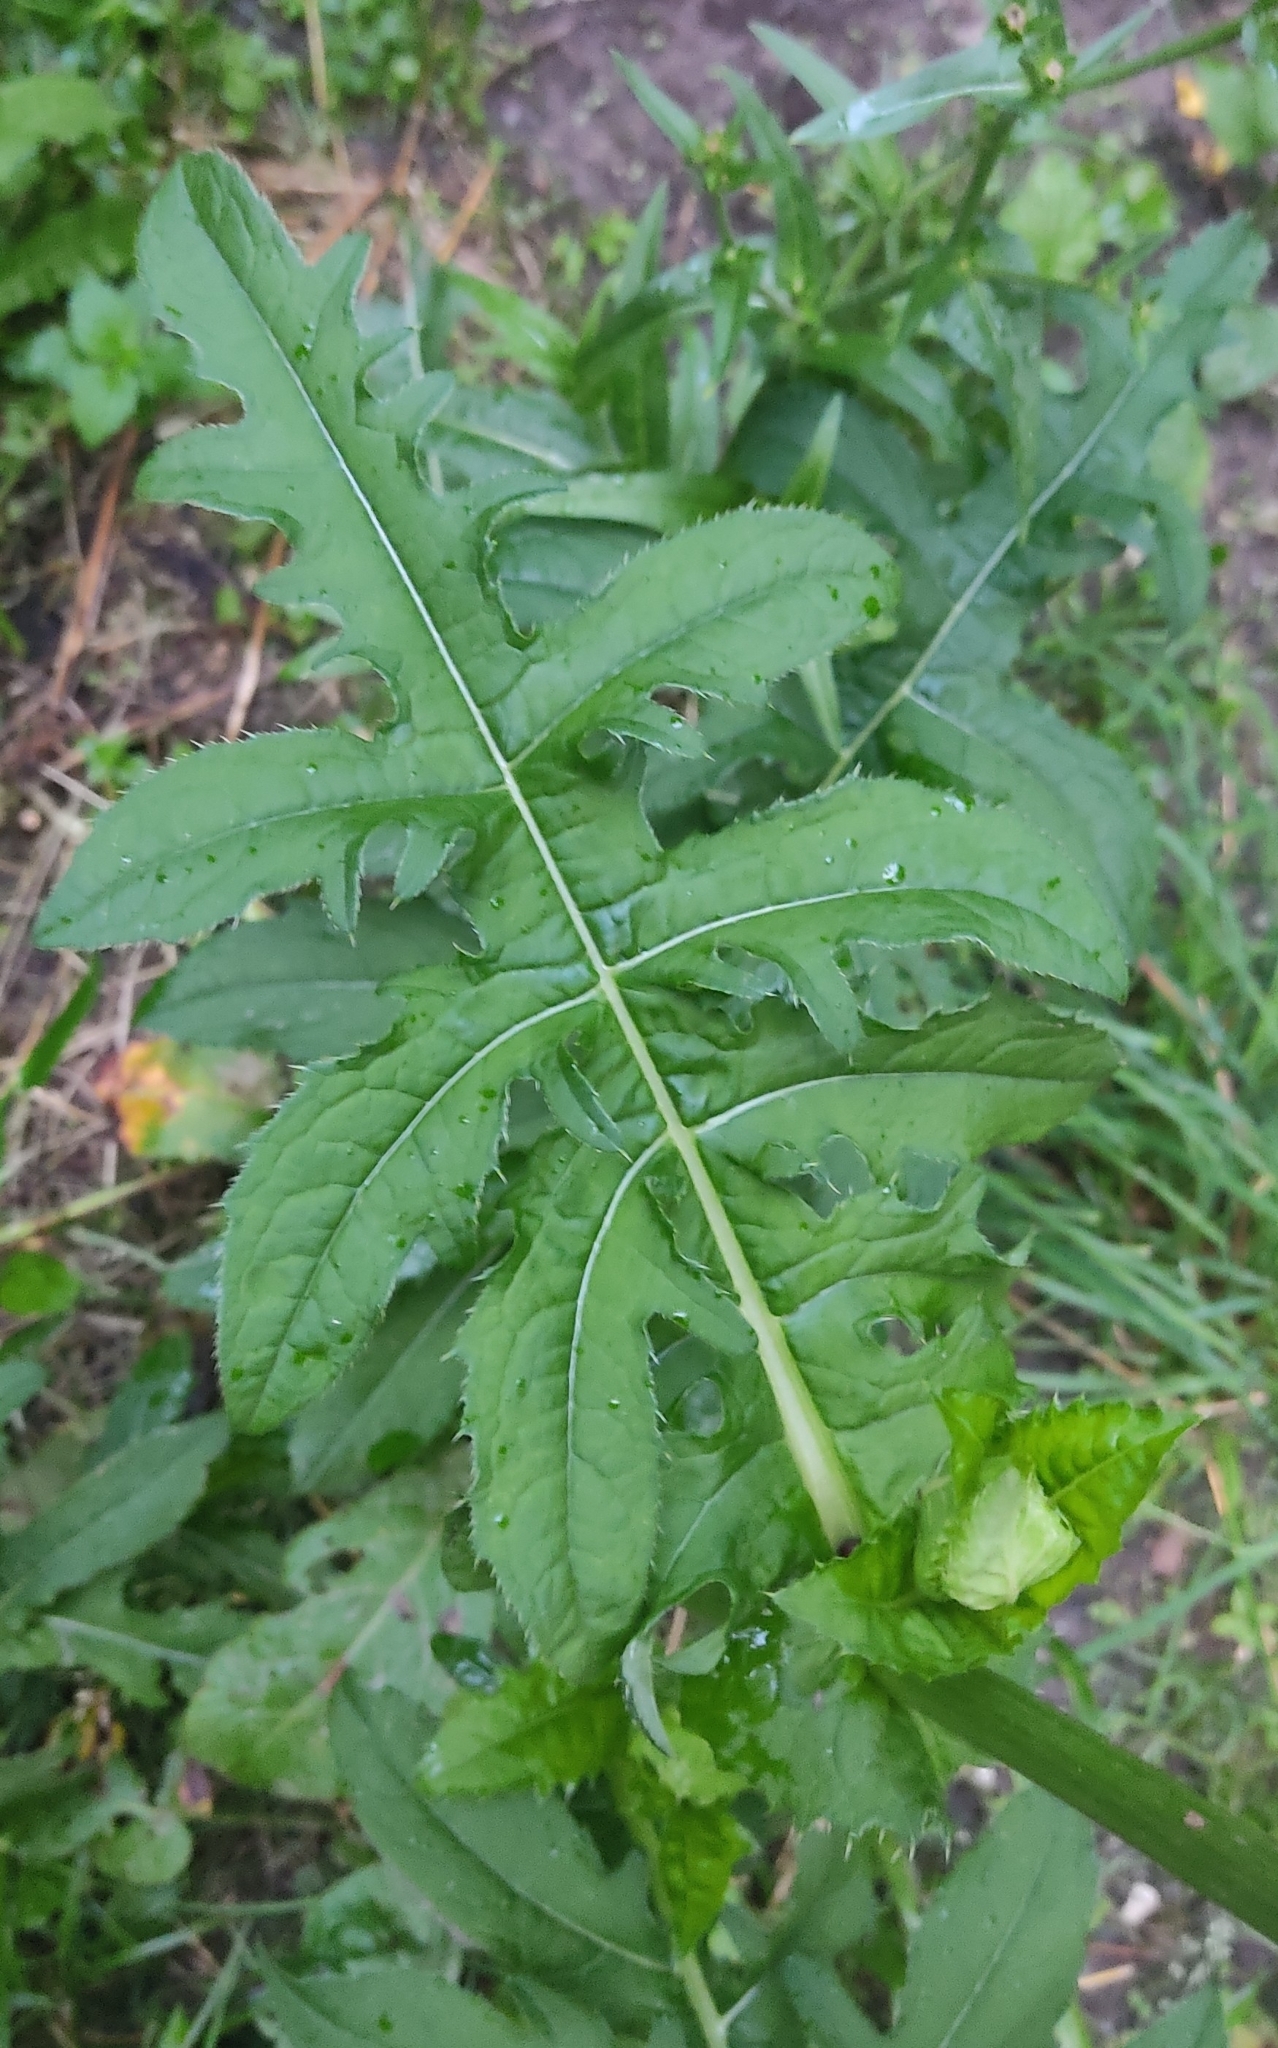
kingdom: Plantae
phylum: Tracheophyta
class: Magnoliopsida
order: Asterales
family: Asteraceae
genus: Cirsium
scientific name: Cirsium oleraceum
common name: Cabbage thistle
